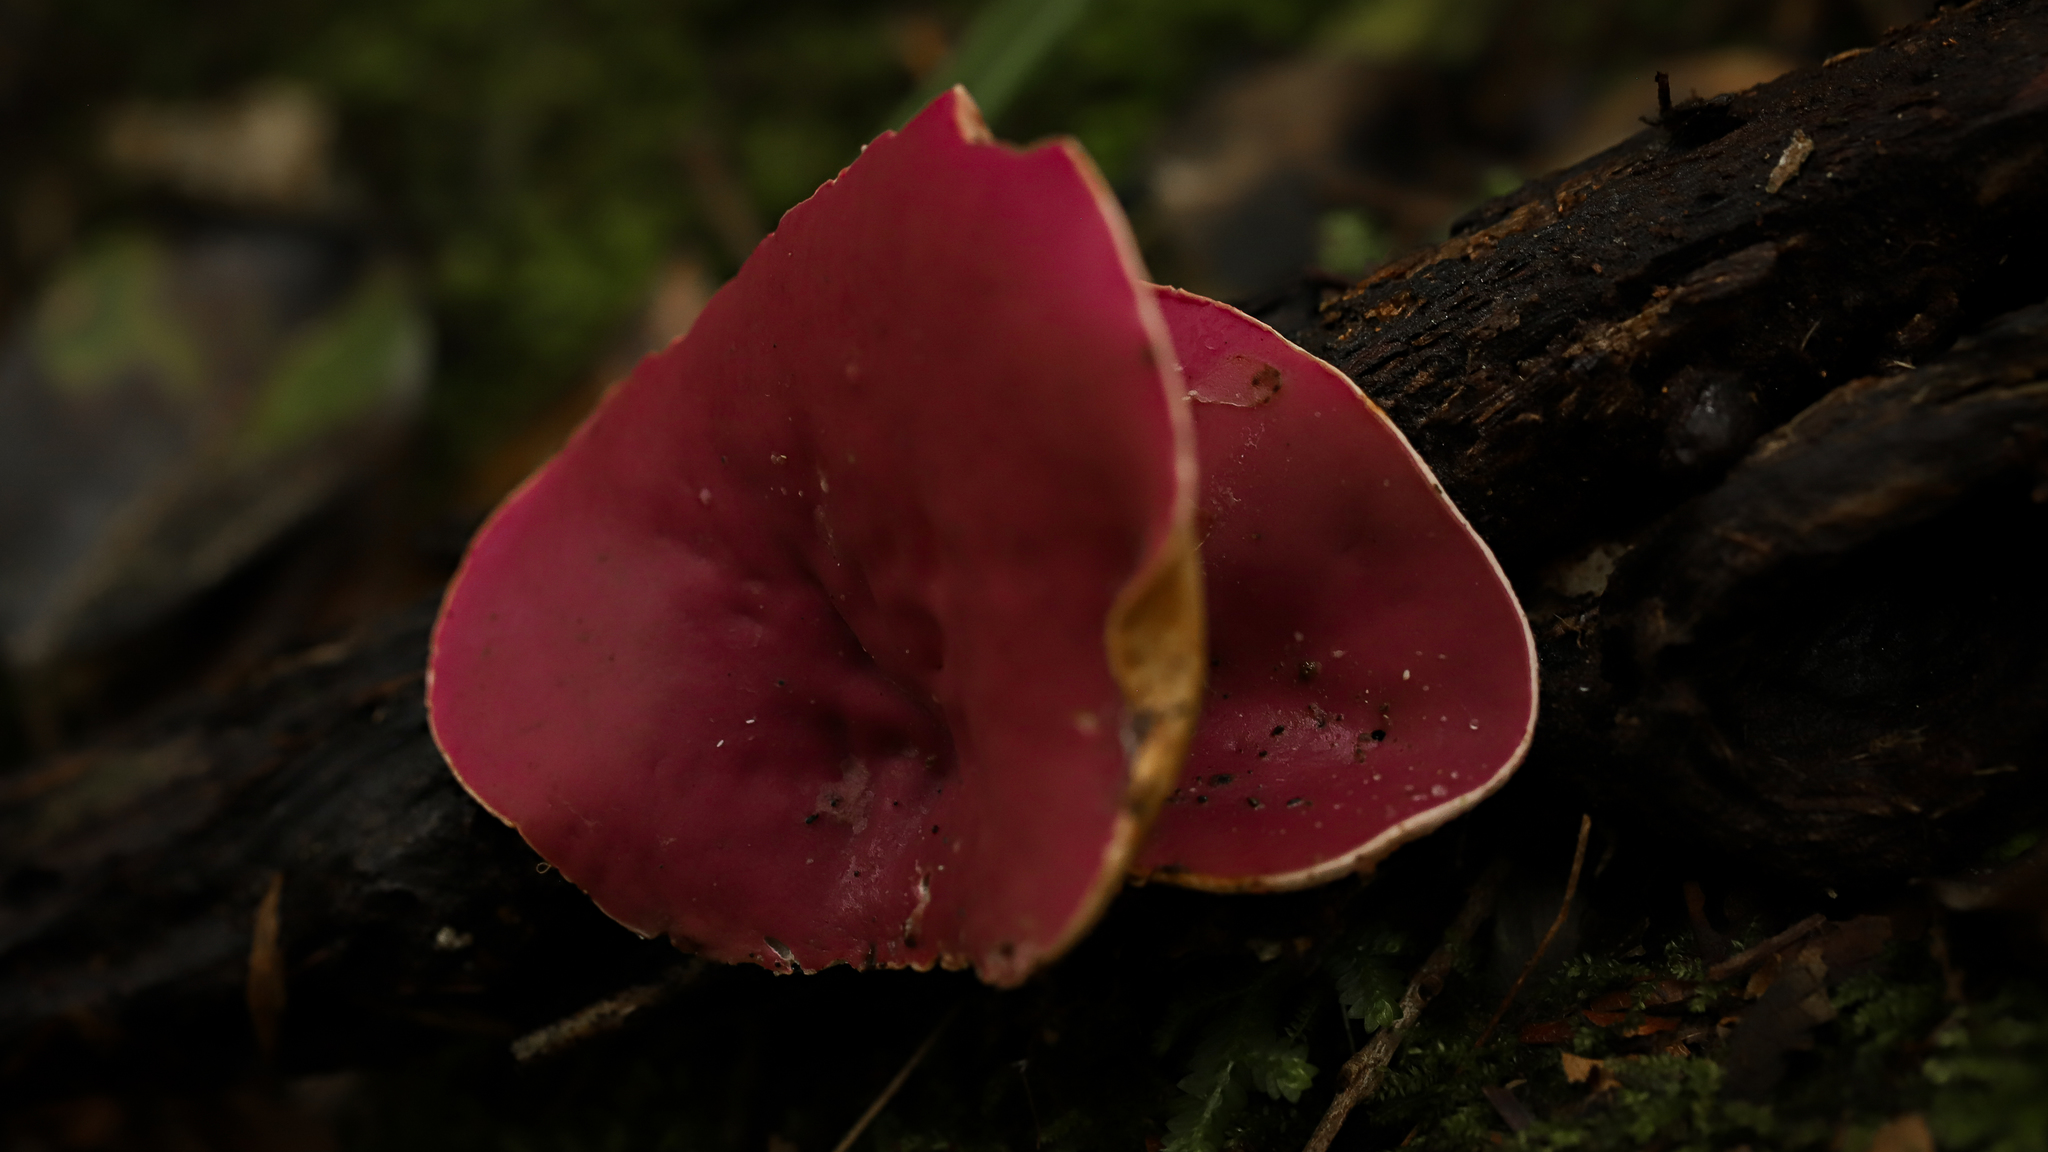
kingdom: Fungi
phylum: Ascomycota
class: Pezizomycetes
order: Pezizales
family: Sarcoscyphaceae
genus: Phillipsia
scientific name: Phillipsia domingensis
